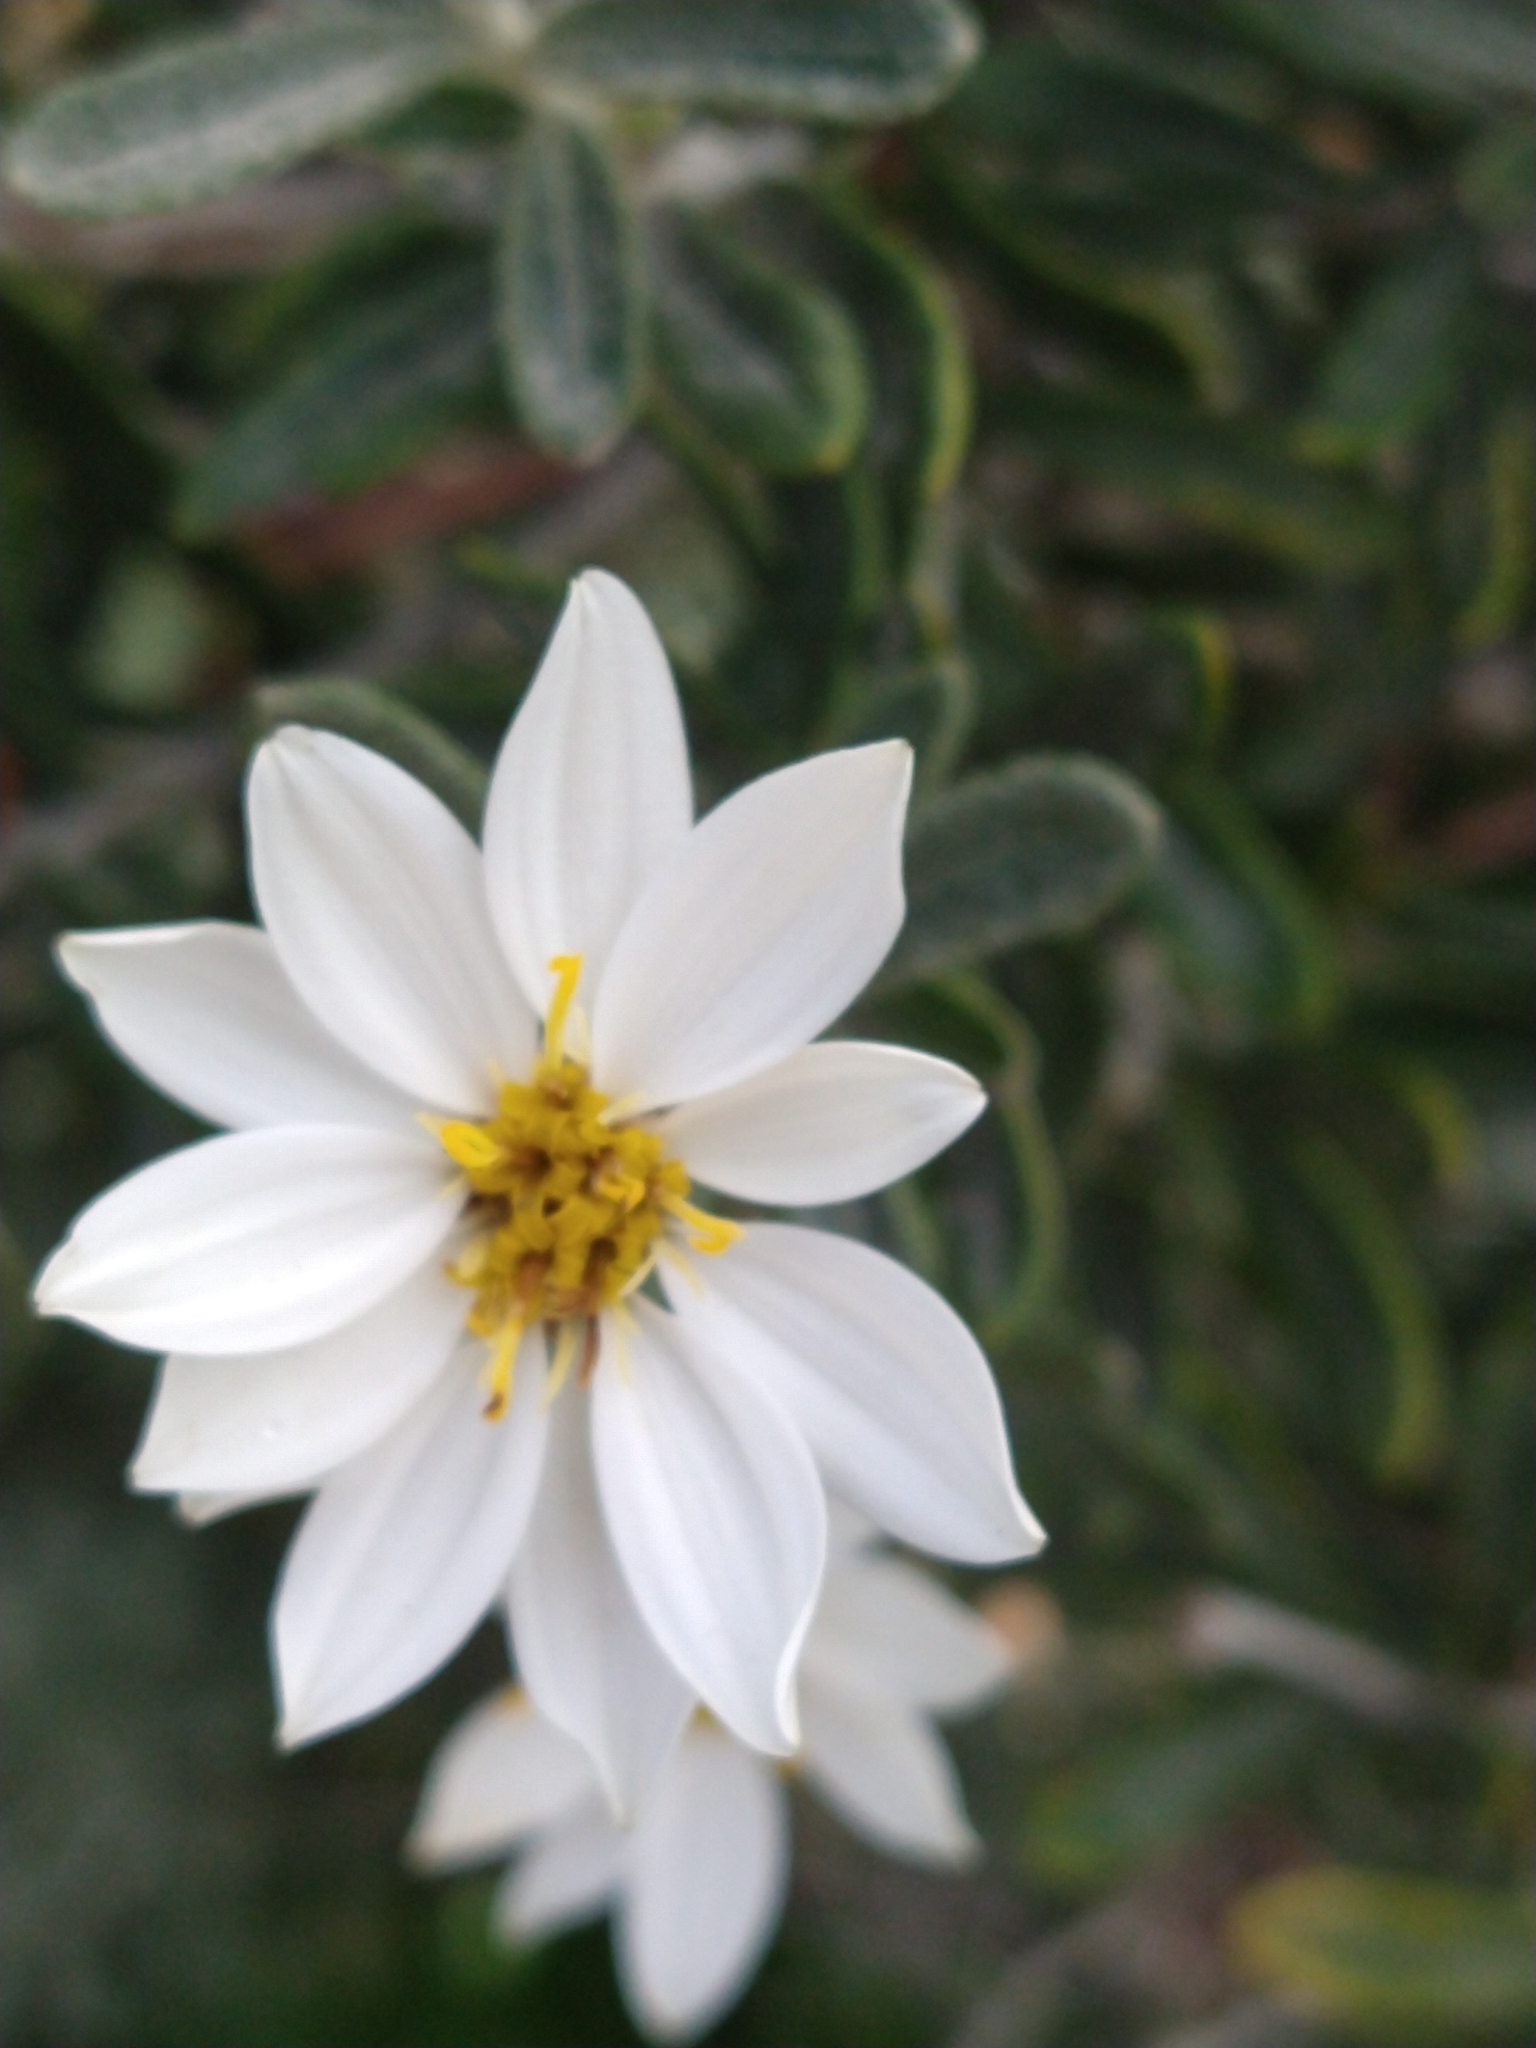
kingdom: Plantae
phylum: Tracheophyta
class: Magnoliopsida
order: Asterales
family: Asteraceae
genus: Chiliotrichum
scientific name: Chiliotrichum diffusum
